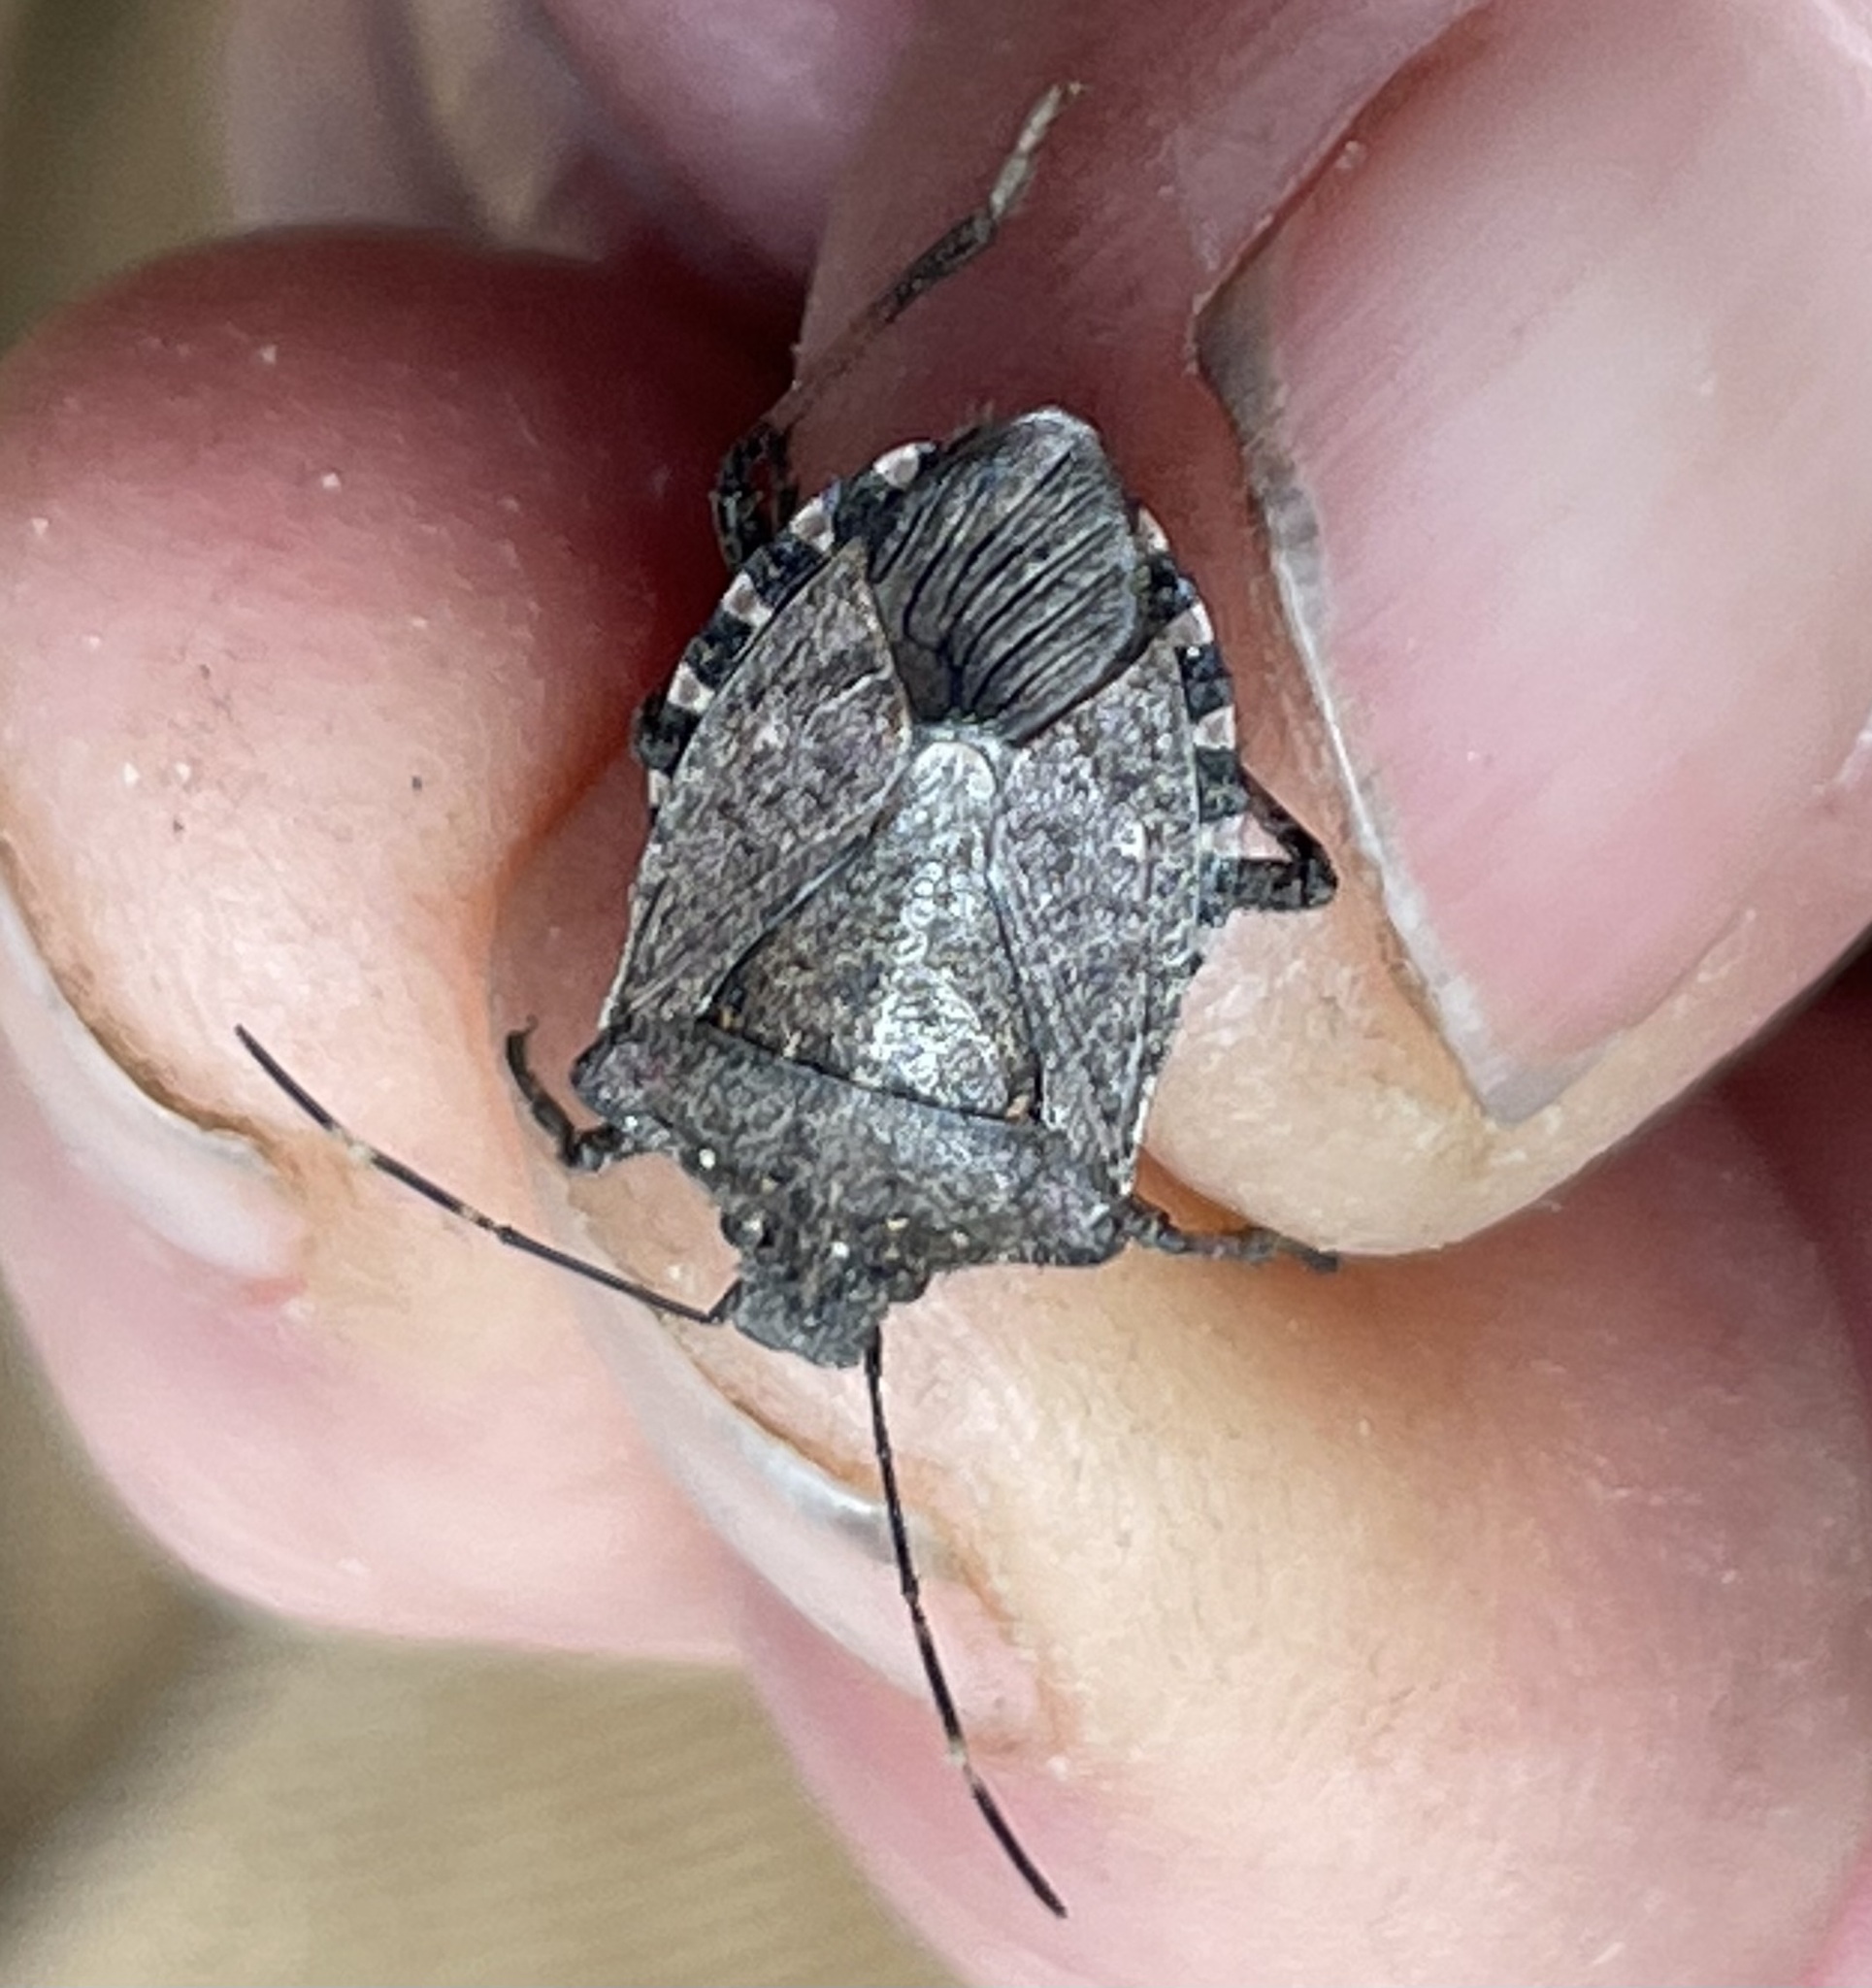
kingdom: Animalia
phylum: Arthropoda
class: Insecta
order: Hemiptera
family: Pentatomidae
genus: Halyomorpha
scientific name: Halyomorpha halys
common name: Brown marmorated stink bug
